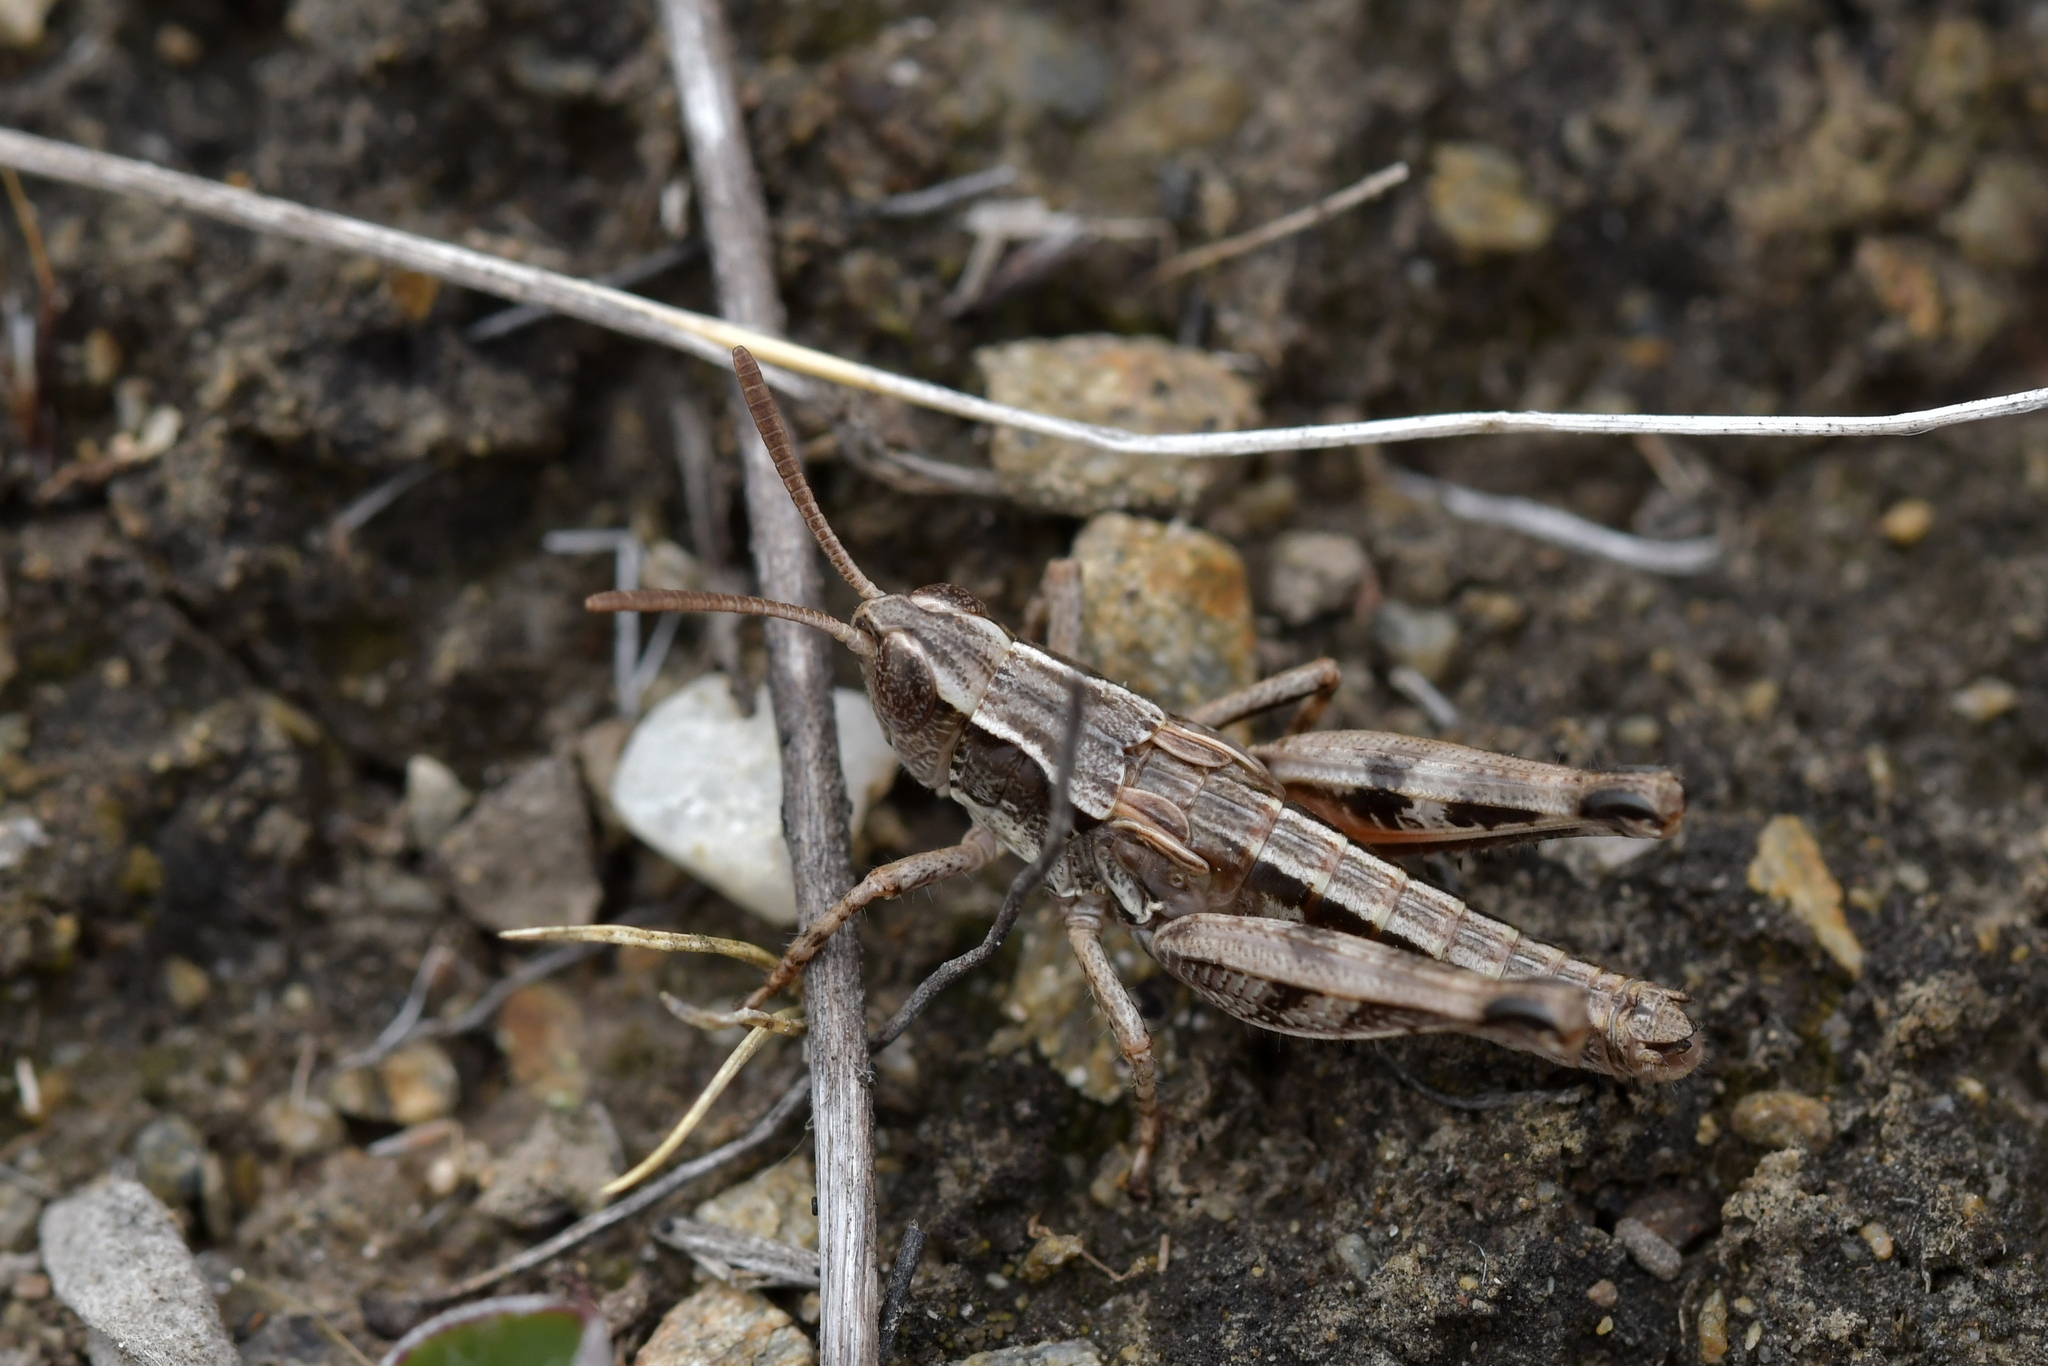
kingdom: Animalia
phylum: Arthropoda
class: Insecta
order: Orthoptera
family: Acrididae
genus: Sigaus
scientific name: Sigaus australis
